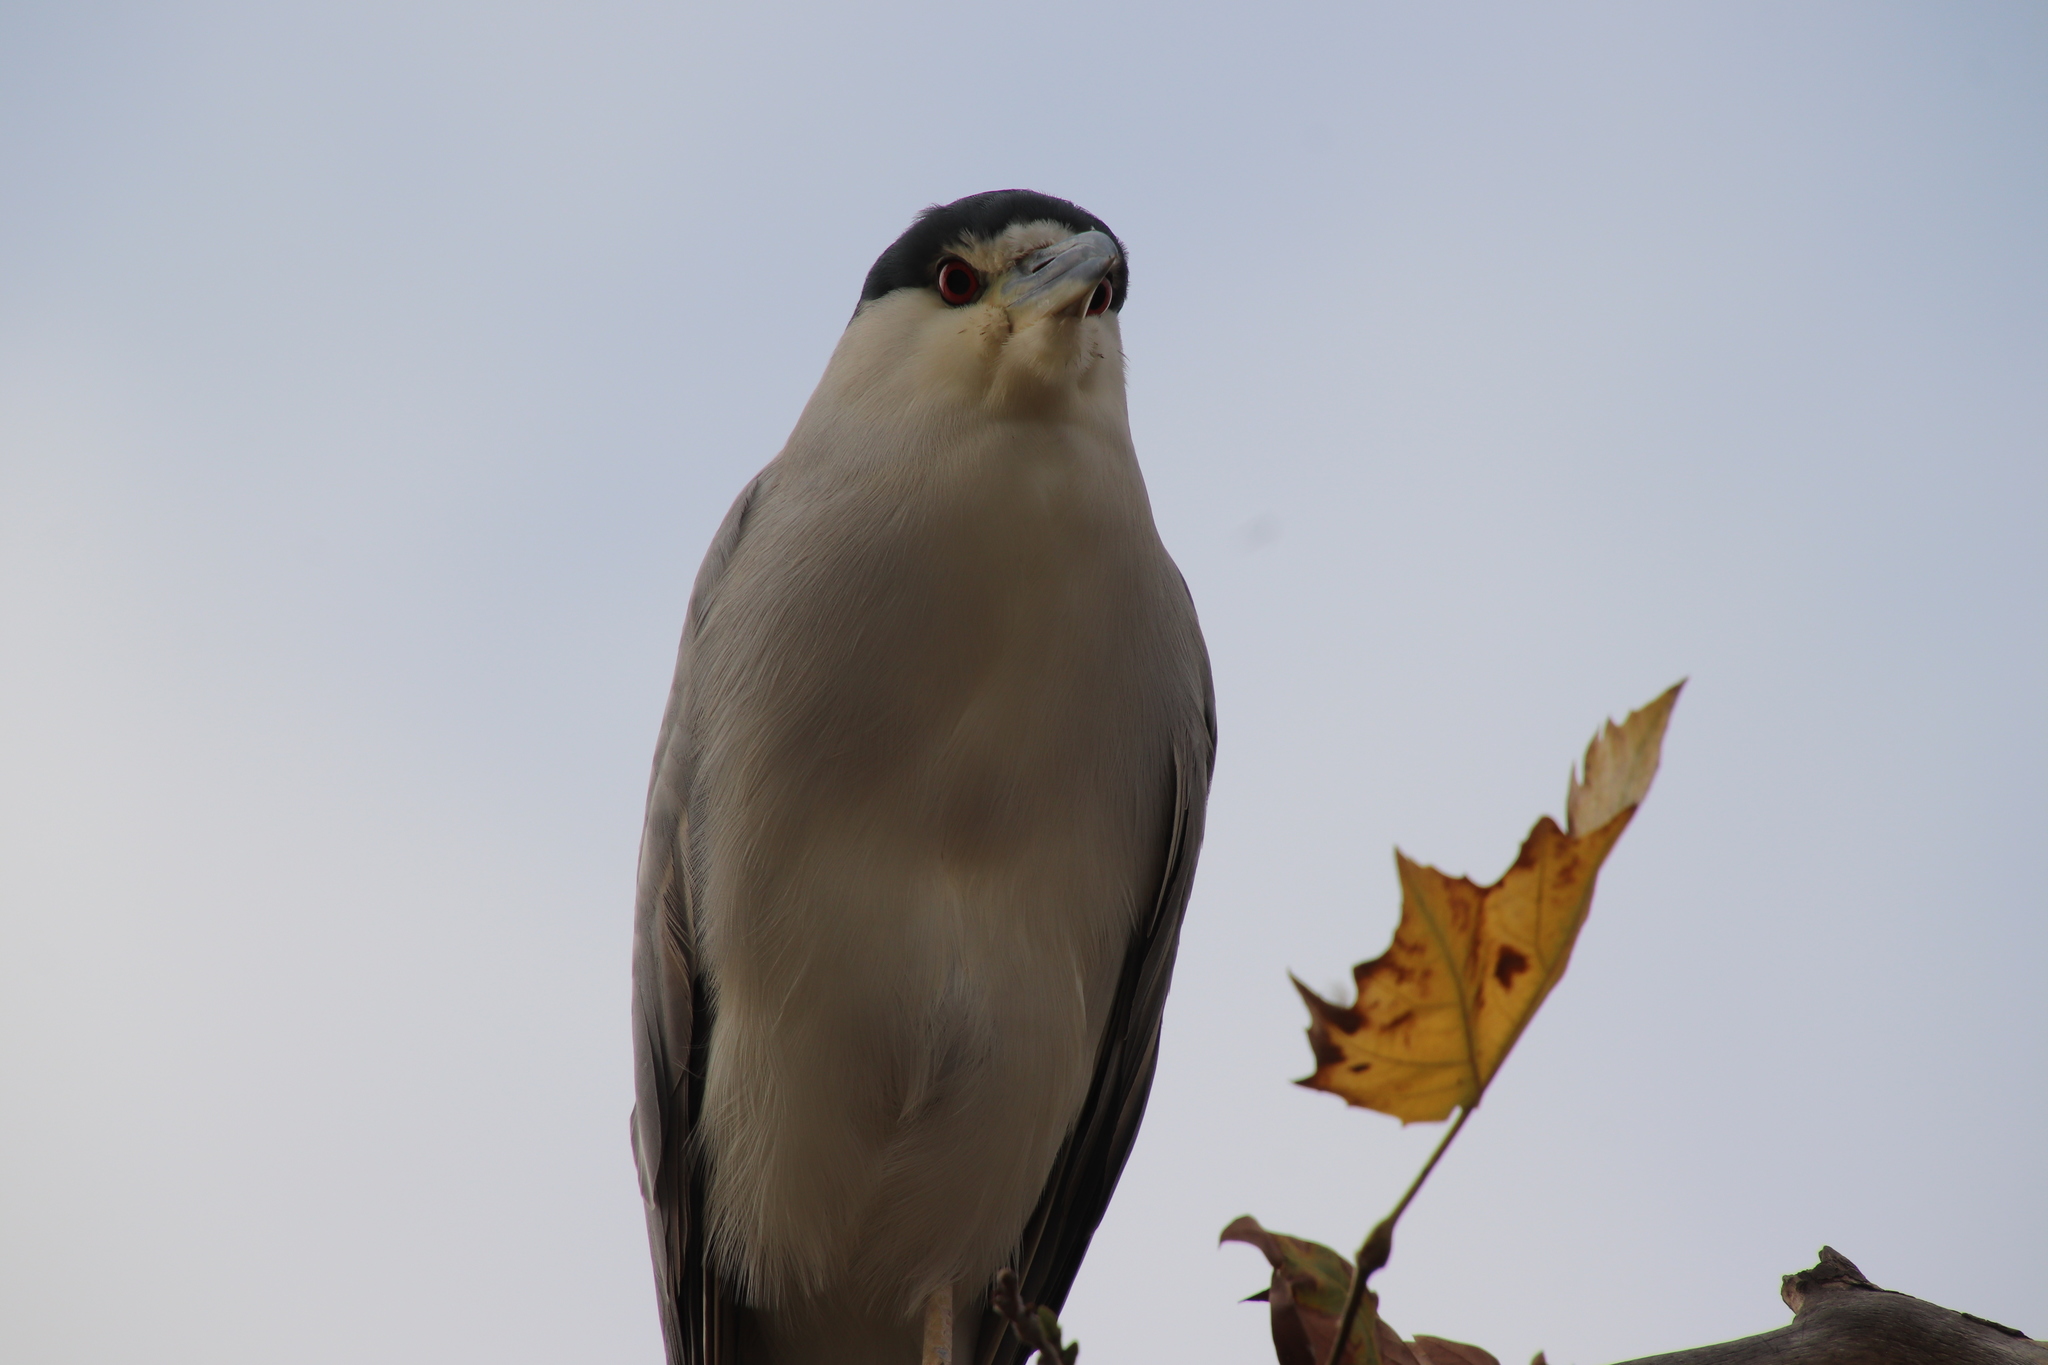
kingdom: Animalia
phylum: Chordata
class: Aves
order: Pelecaniformes
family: Ardeidae
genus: Nycticorax
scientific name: Nycticorax nycticorax
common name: Black-crowned night heron
